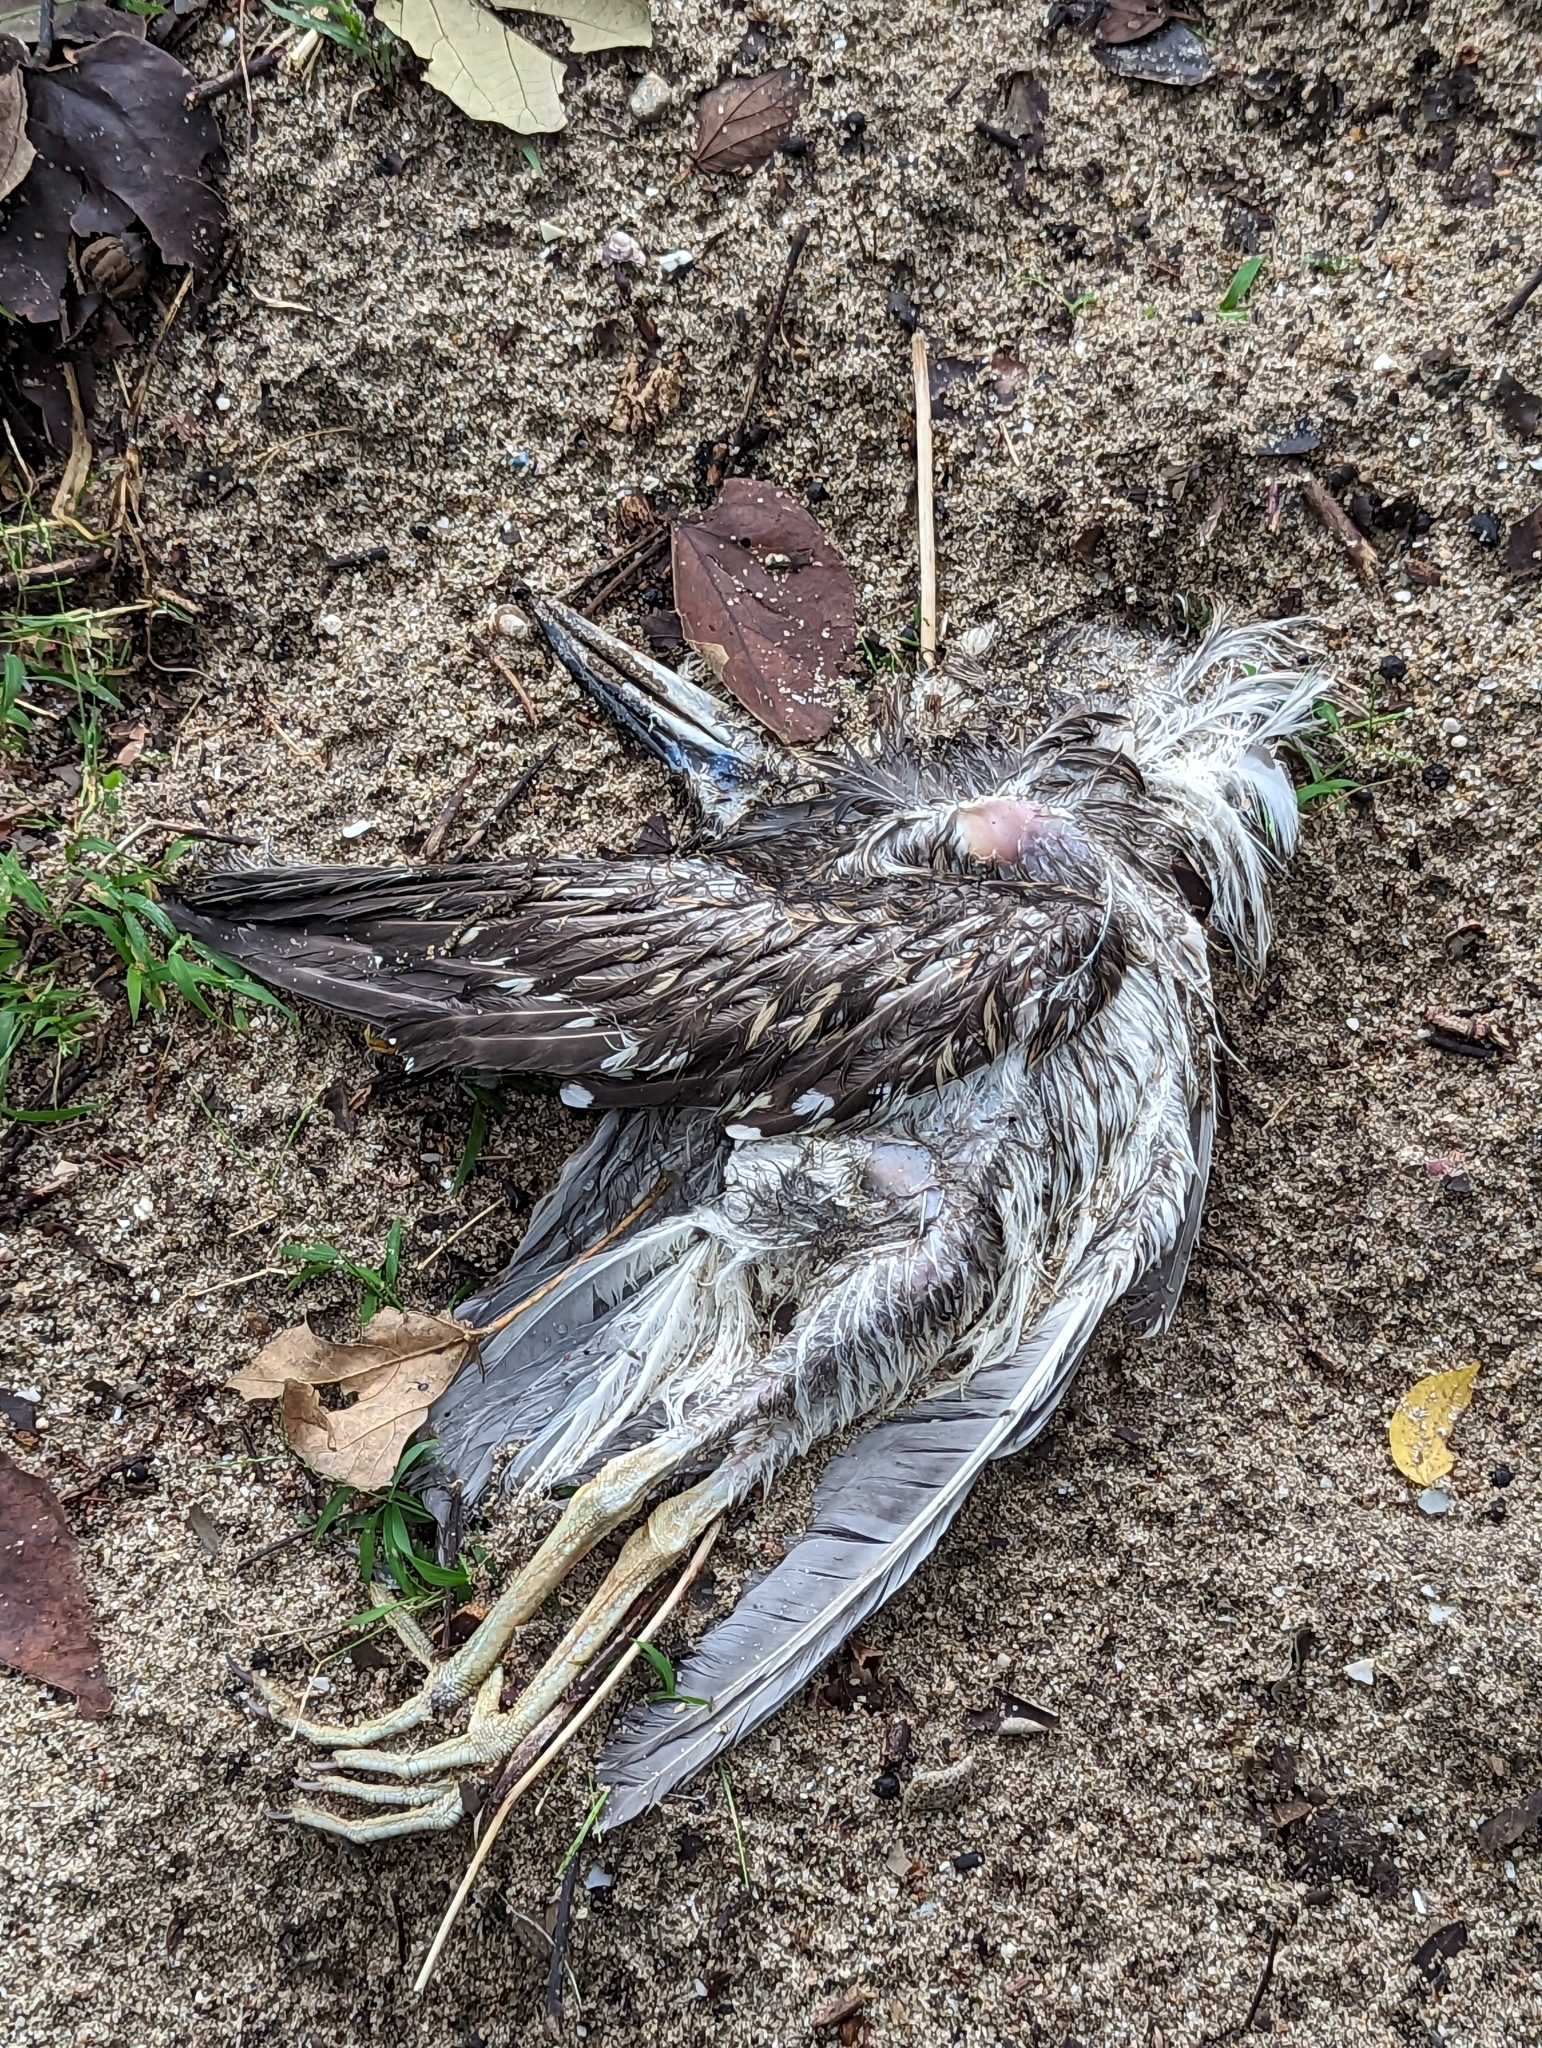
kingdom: Animalia
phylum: Chordata
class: Aves
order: Pelecaniformes
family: Ardeidae
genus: Nycticorax
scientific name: Nycticorax nycticorax
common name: Black-crowned night heron
